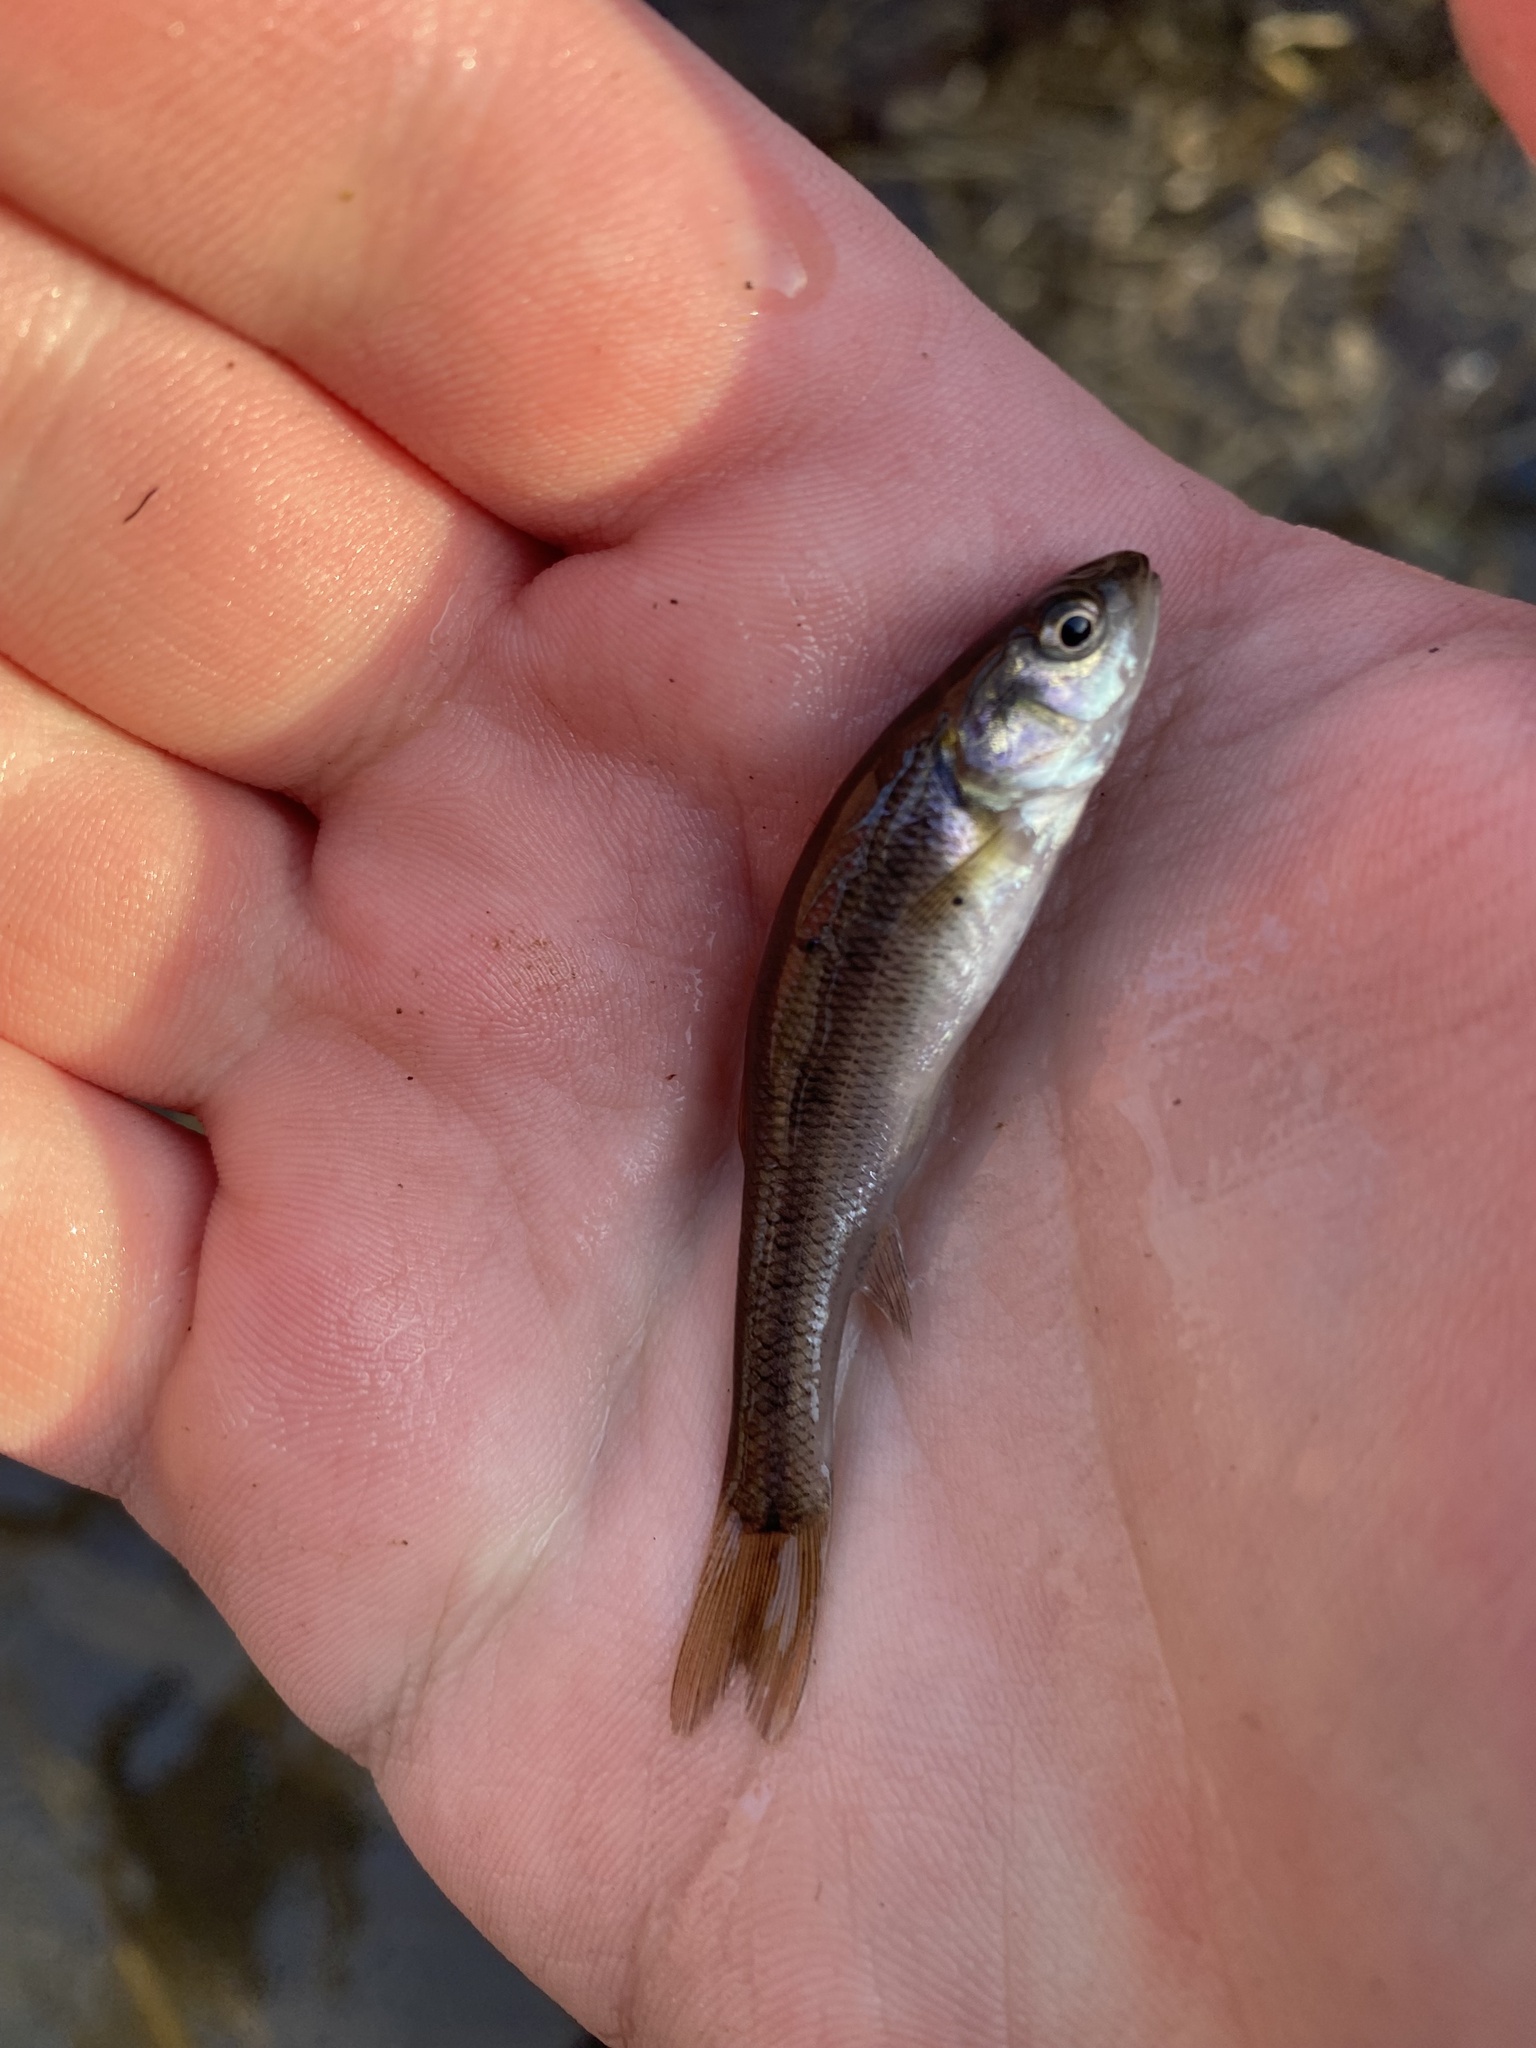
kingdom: Animalia
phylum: Chordata
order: Cypriniformes
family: Cyprinidae
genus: Semotilus
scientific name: Semotilus atromaculatus
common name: Creek chub
